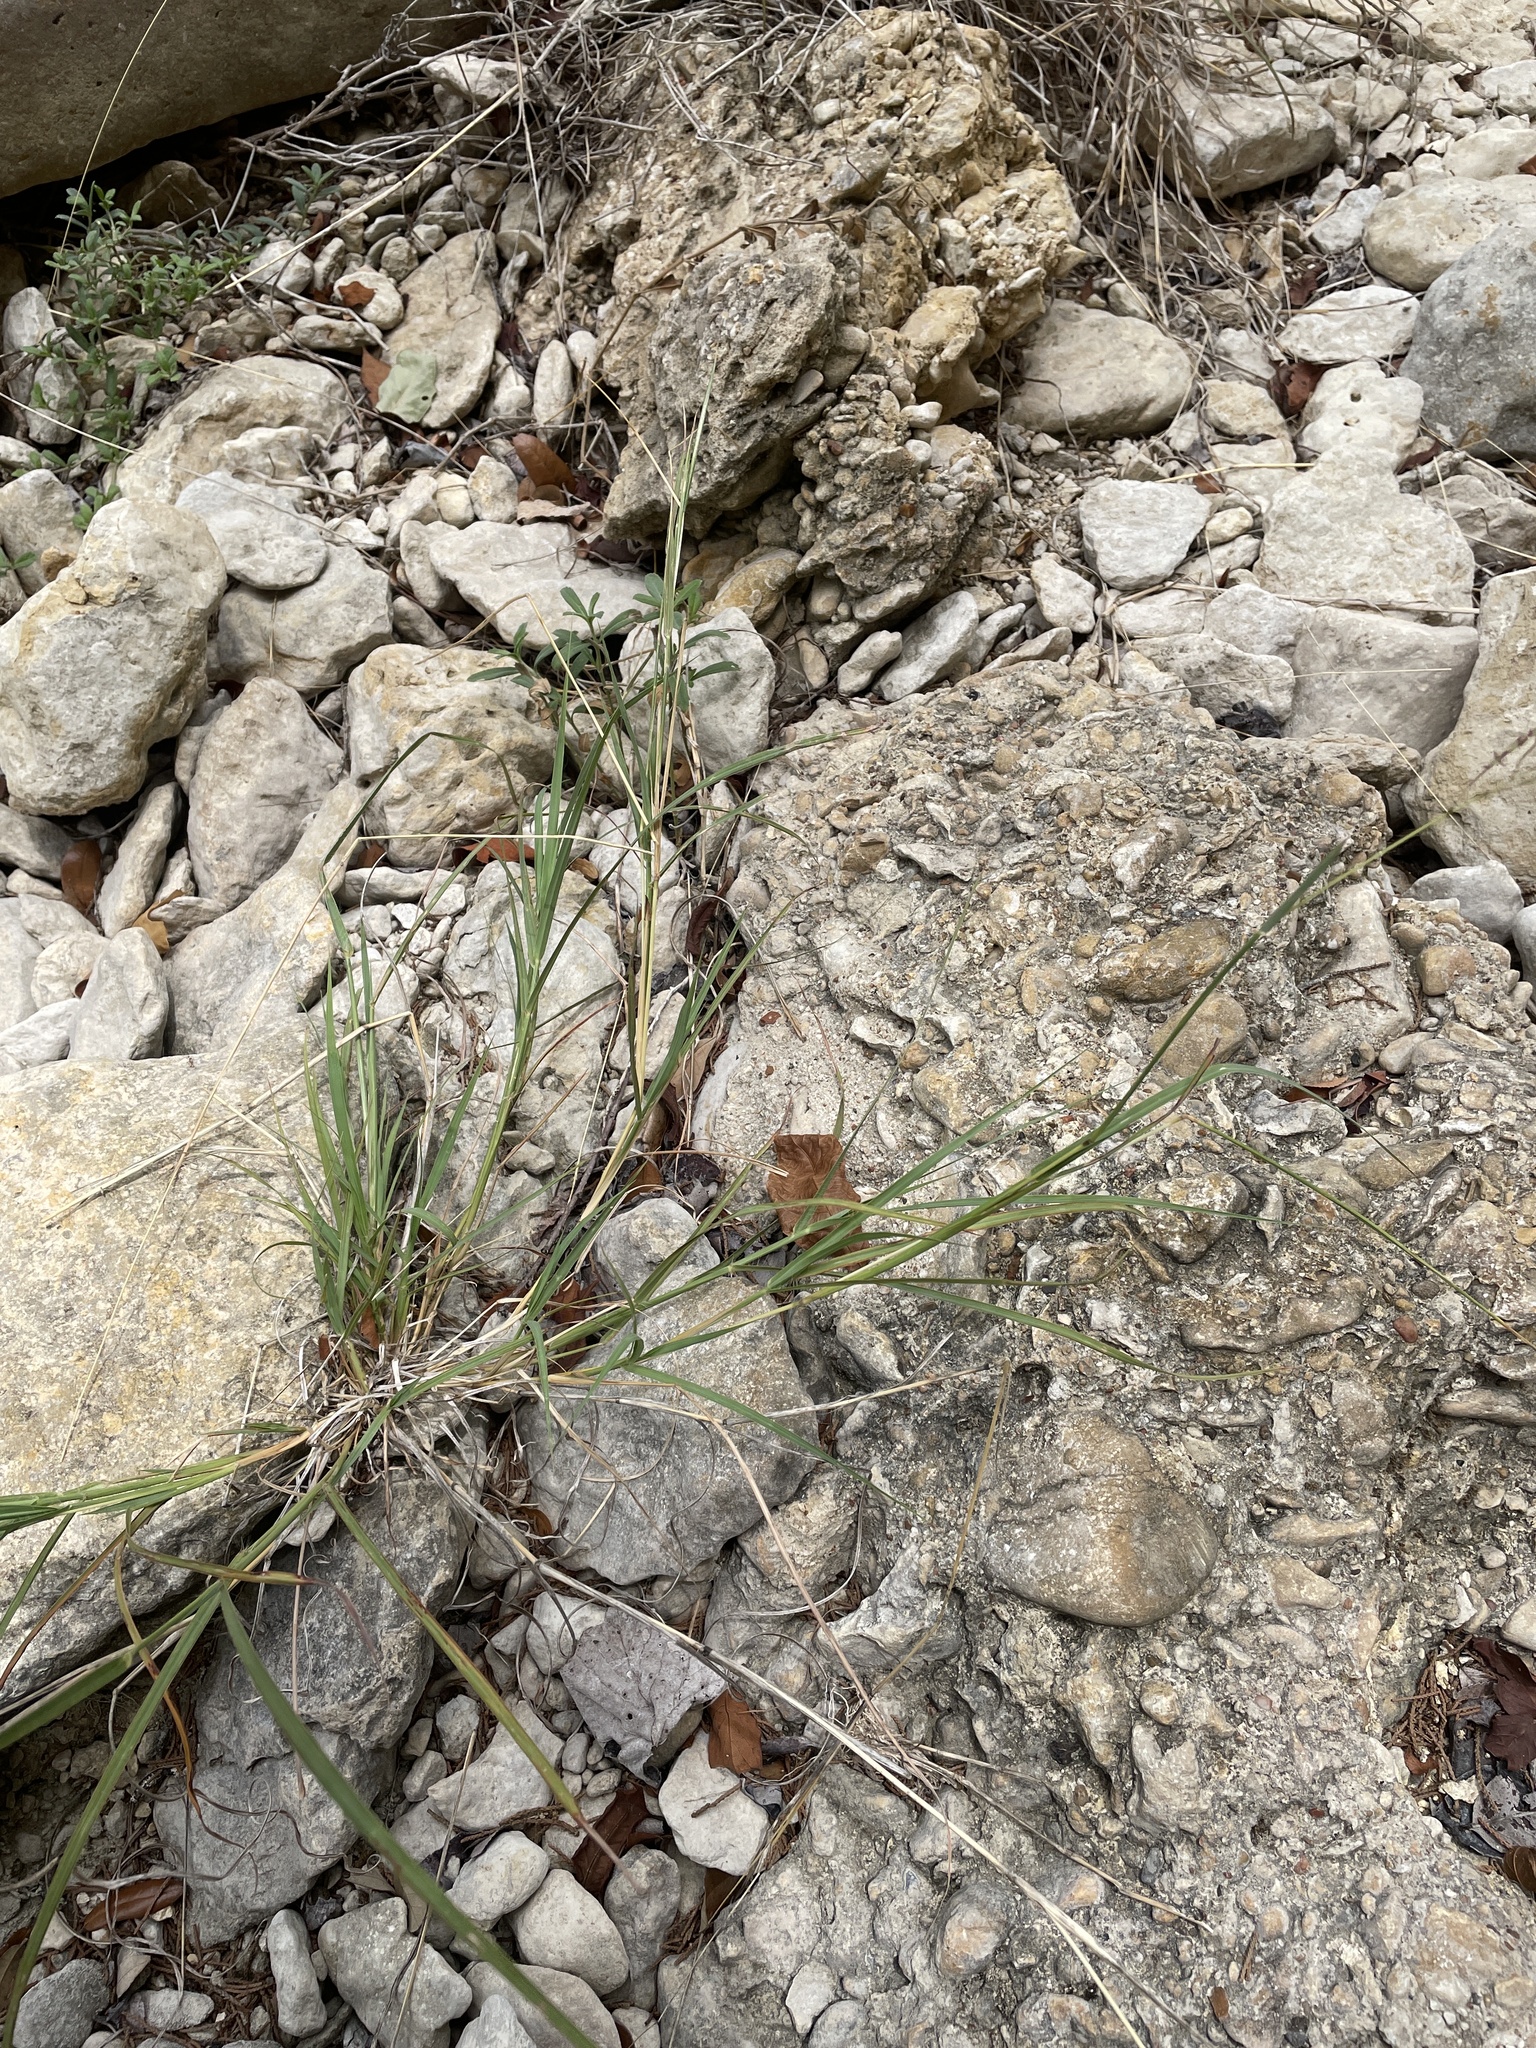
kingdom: Plantae
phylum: Tracheophyta
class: Liliopsida
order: Poales
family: Poaceae
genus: Bothriochloa
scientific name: Bothriochloa ischaemum
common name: Yellow bluestem
